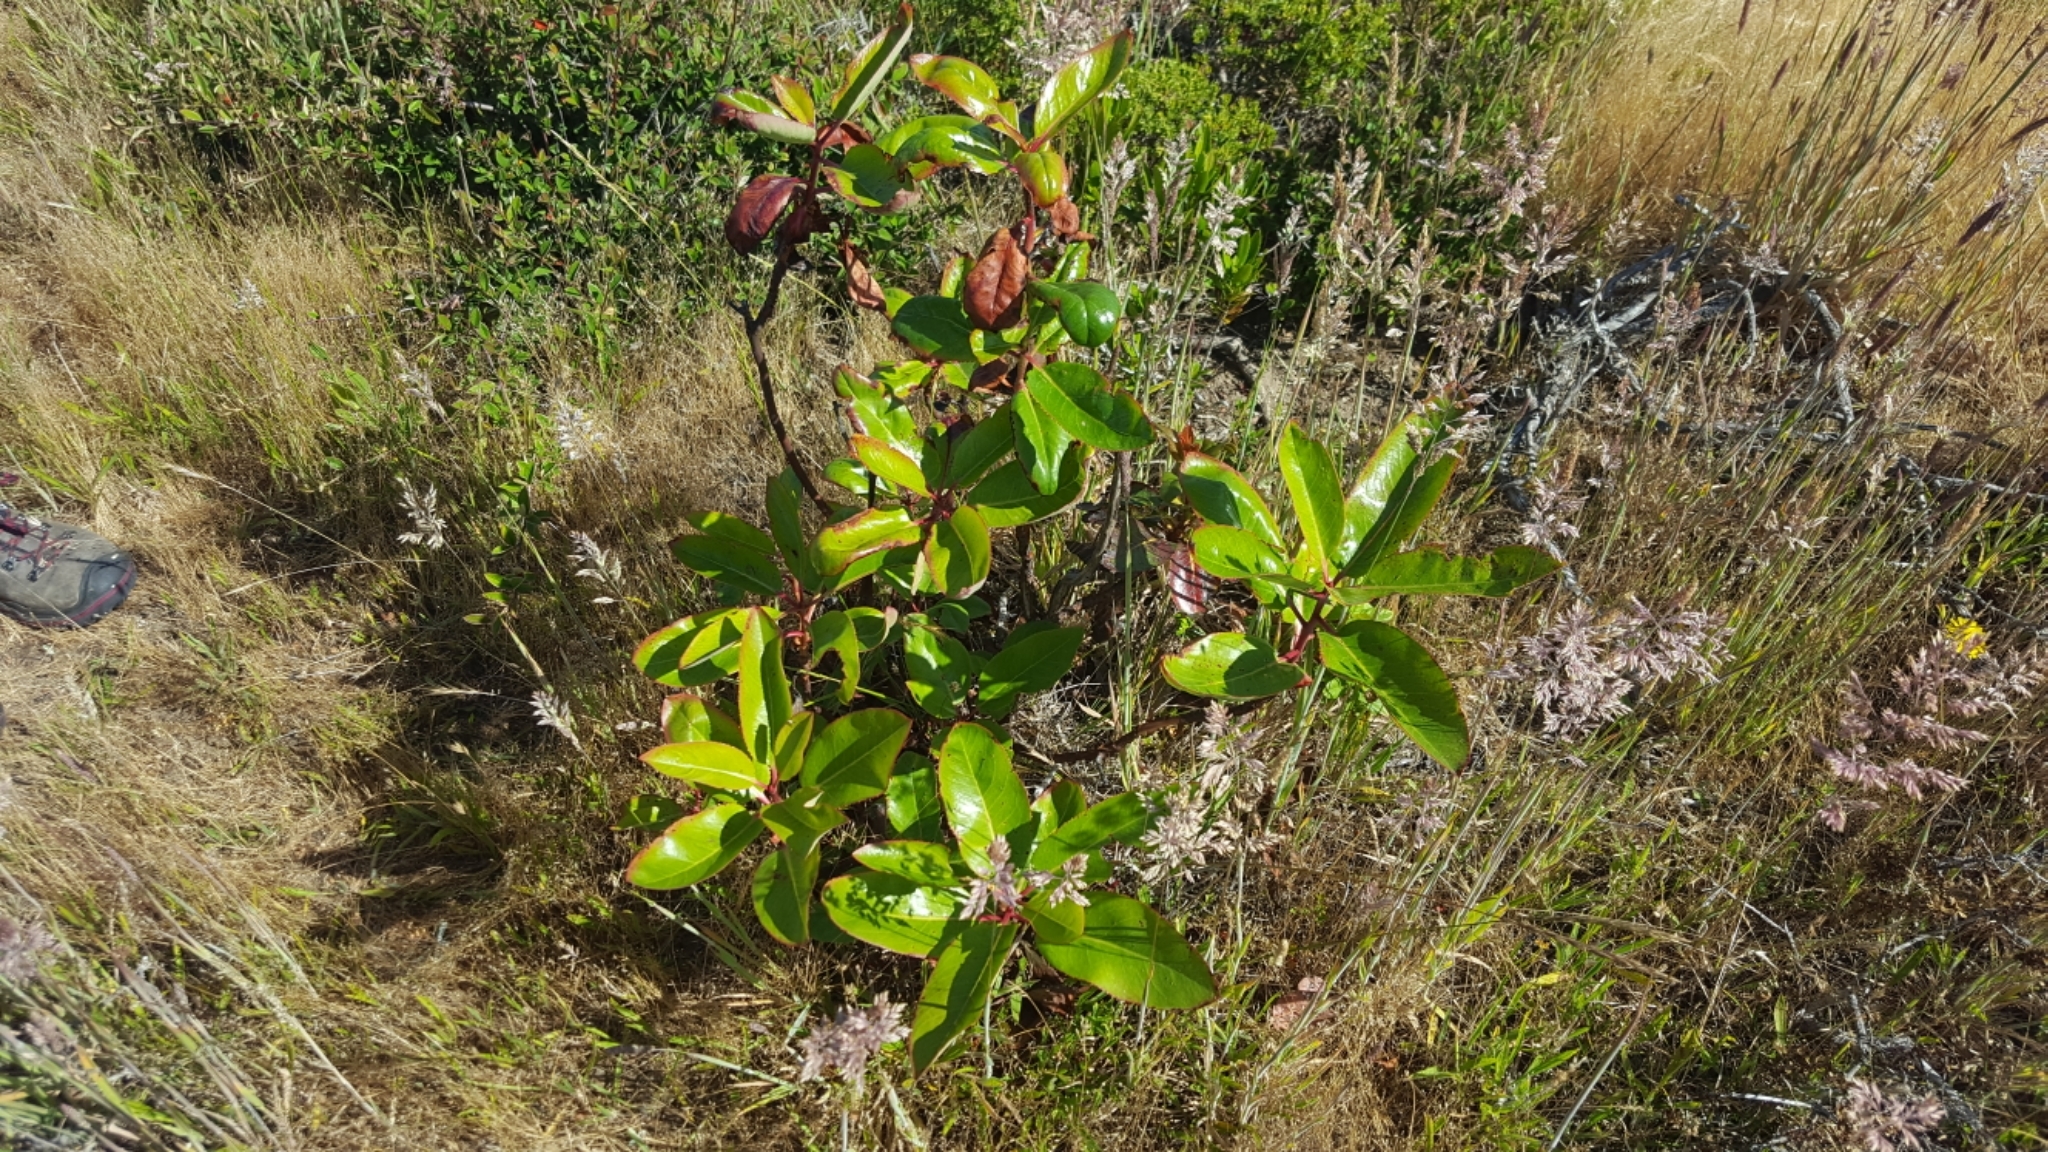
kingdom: Plantae
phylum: Tracheophyta
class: Magnoliopsida
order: Ericales
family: Ericaceae
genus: Arbutus
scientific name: Arbutus menziesii
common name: Pacific madrone
